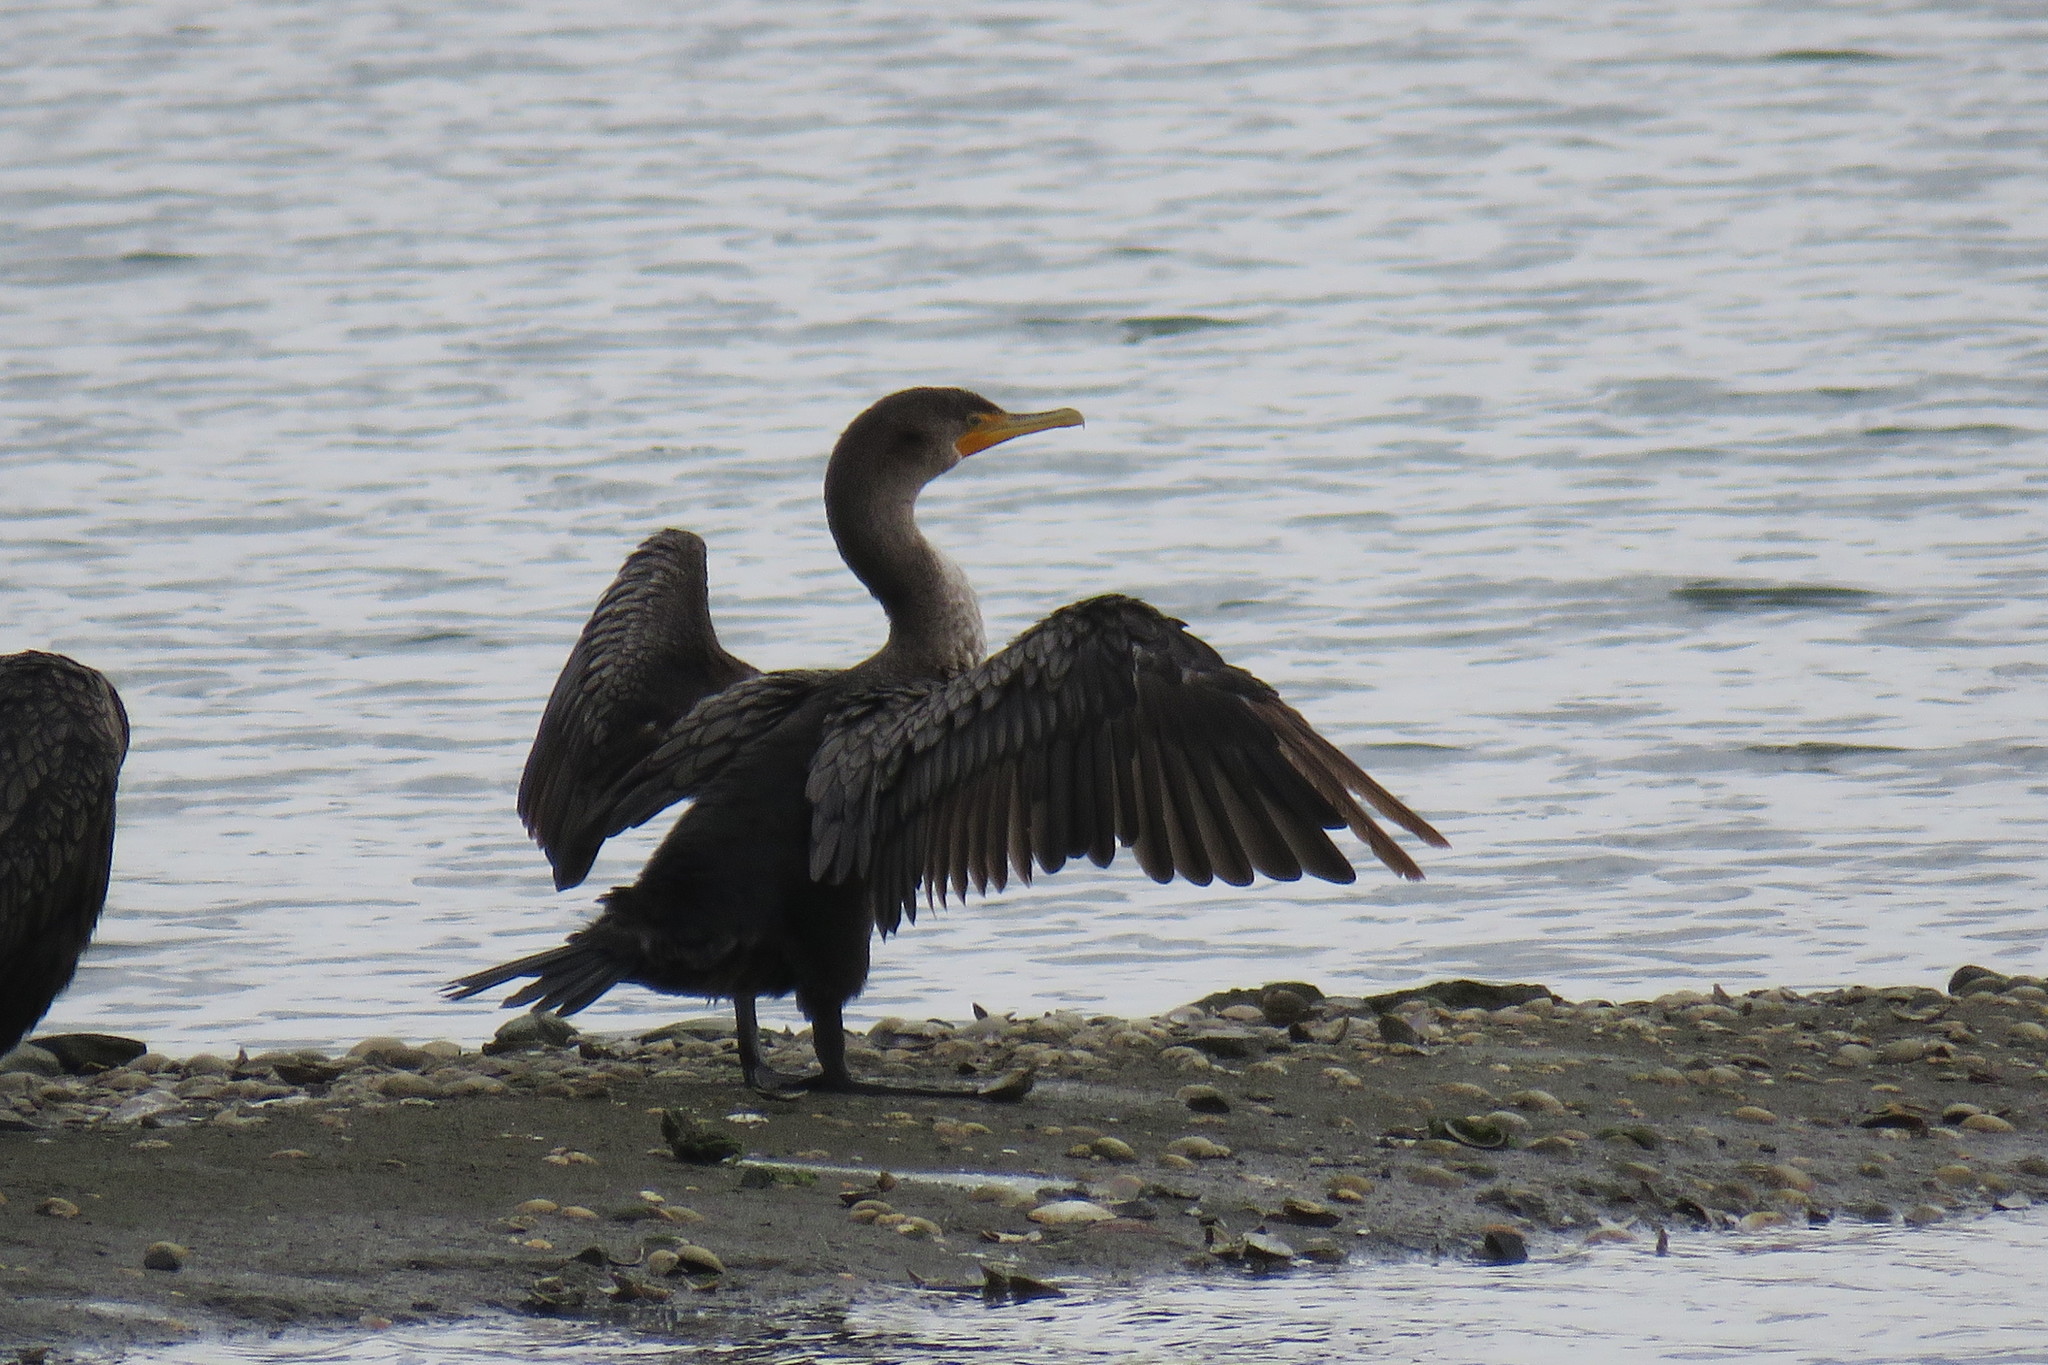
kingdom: Animalia
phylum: Chordata
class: Aves
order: Suliformes
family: Phalacrocoracidae
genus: Phalacrocorax
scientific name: Phalacrocorax auritus
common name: Double-crested cormorant
